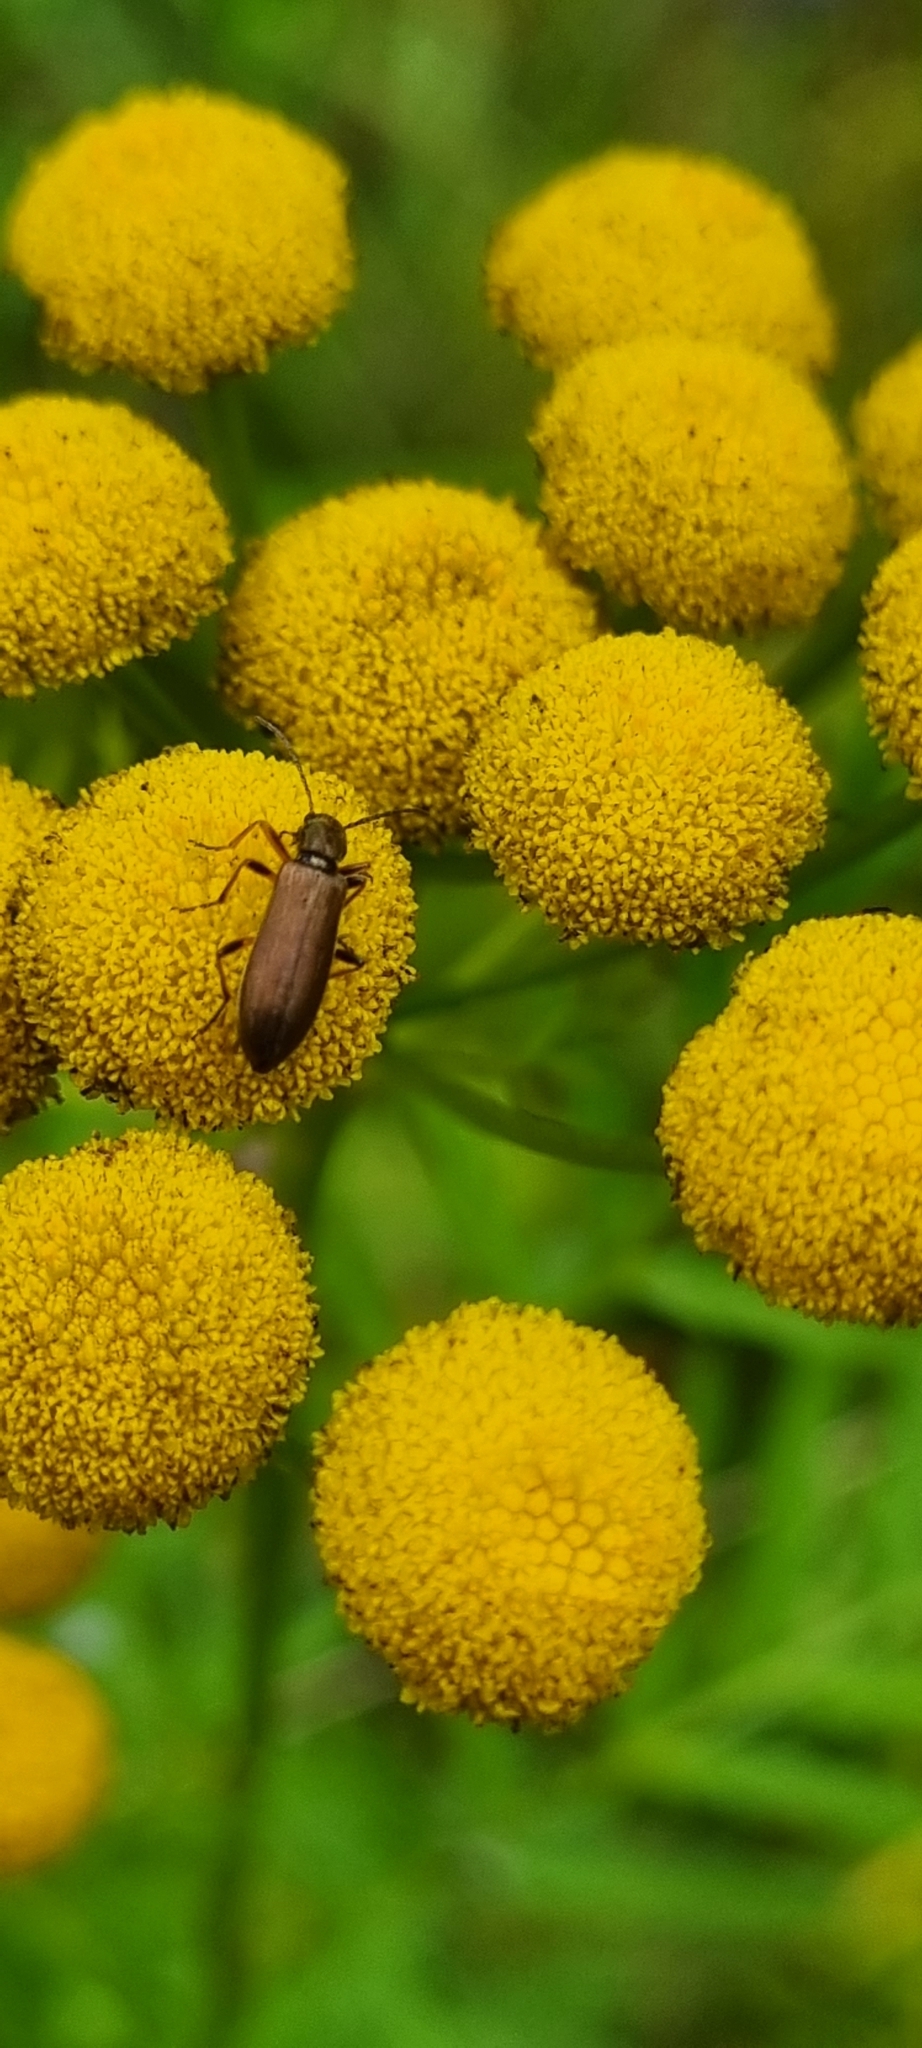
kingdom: Animalia
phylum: Arthropoda
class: Insecta
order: Coleoptera
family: Oedemeridae
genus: Chrysanthia
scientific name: Chrysanthia geniculata
